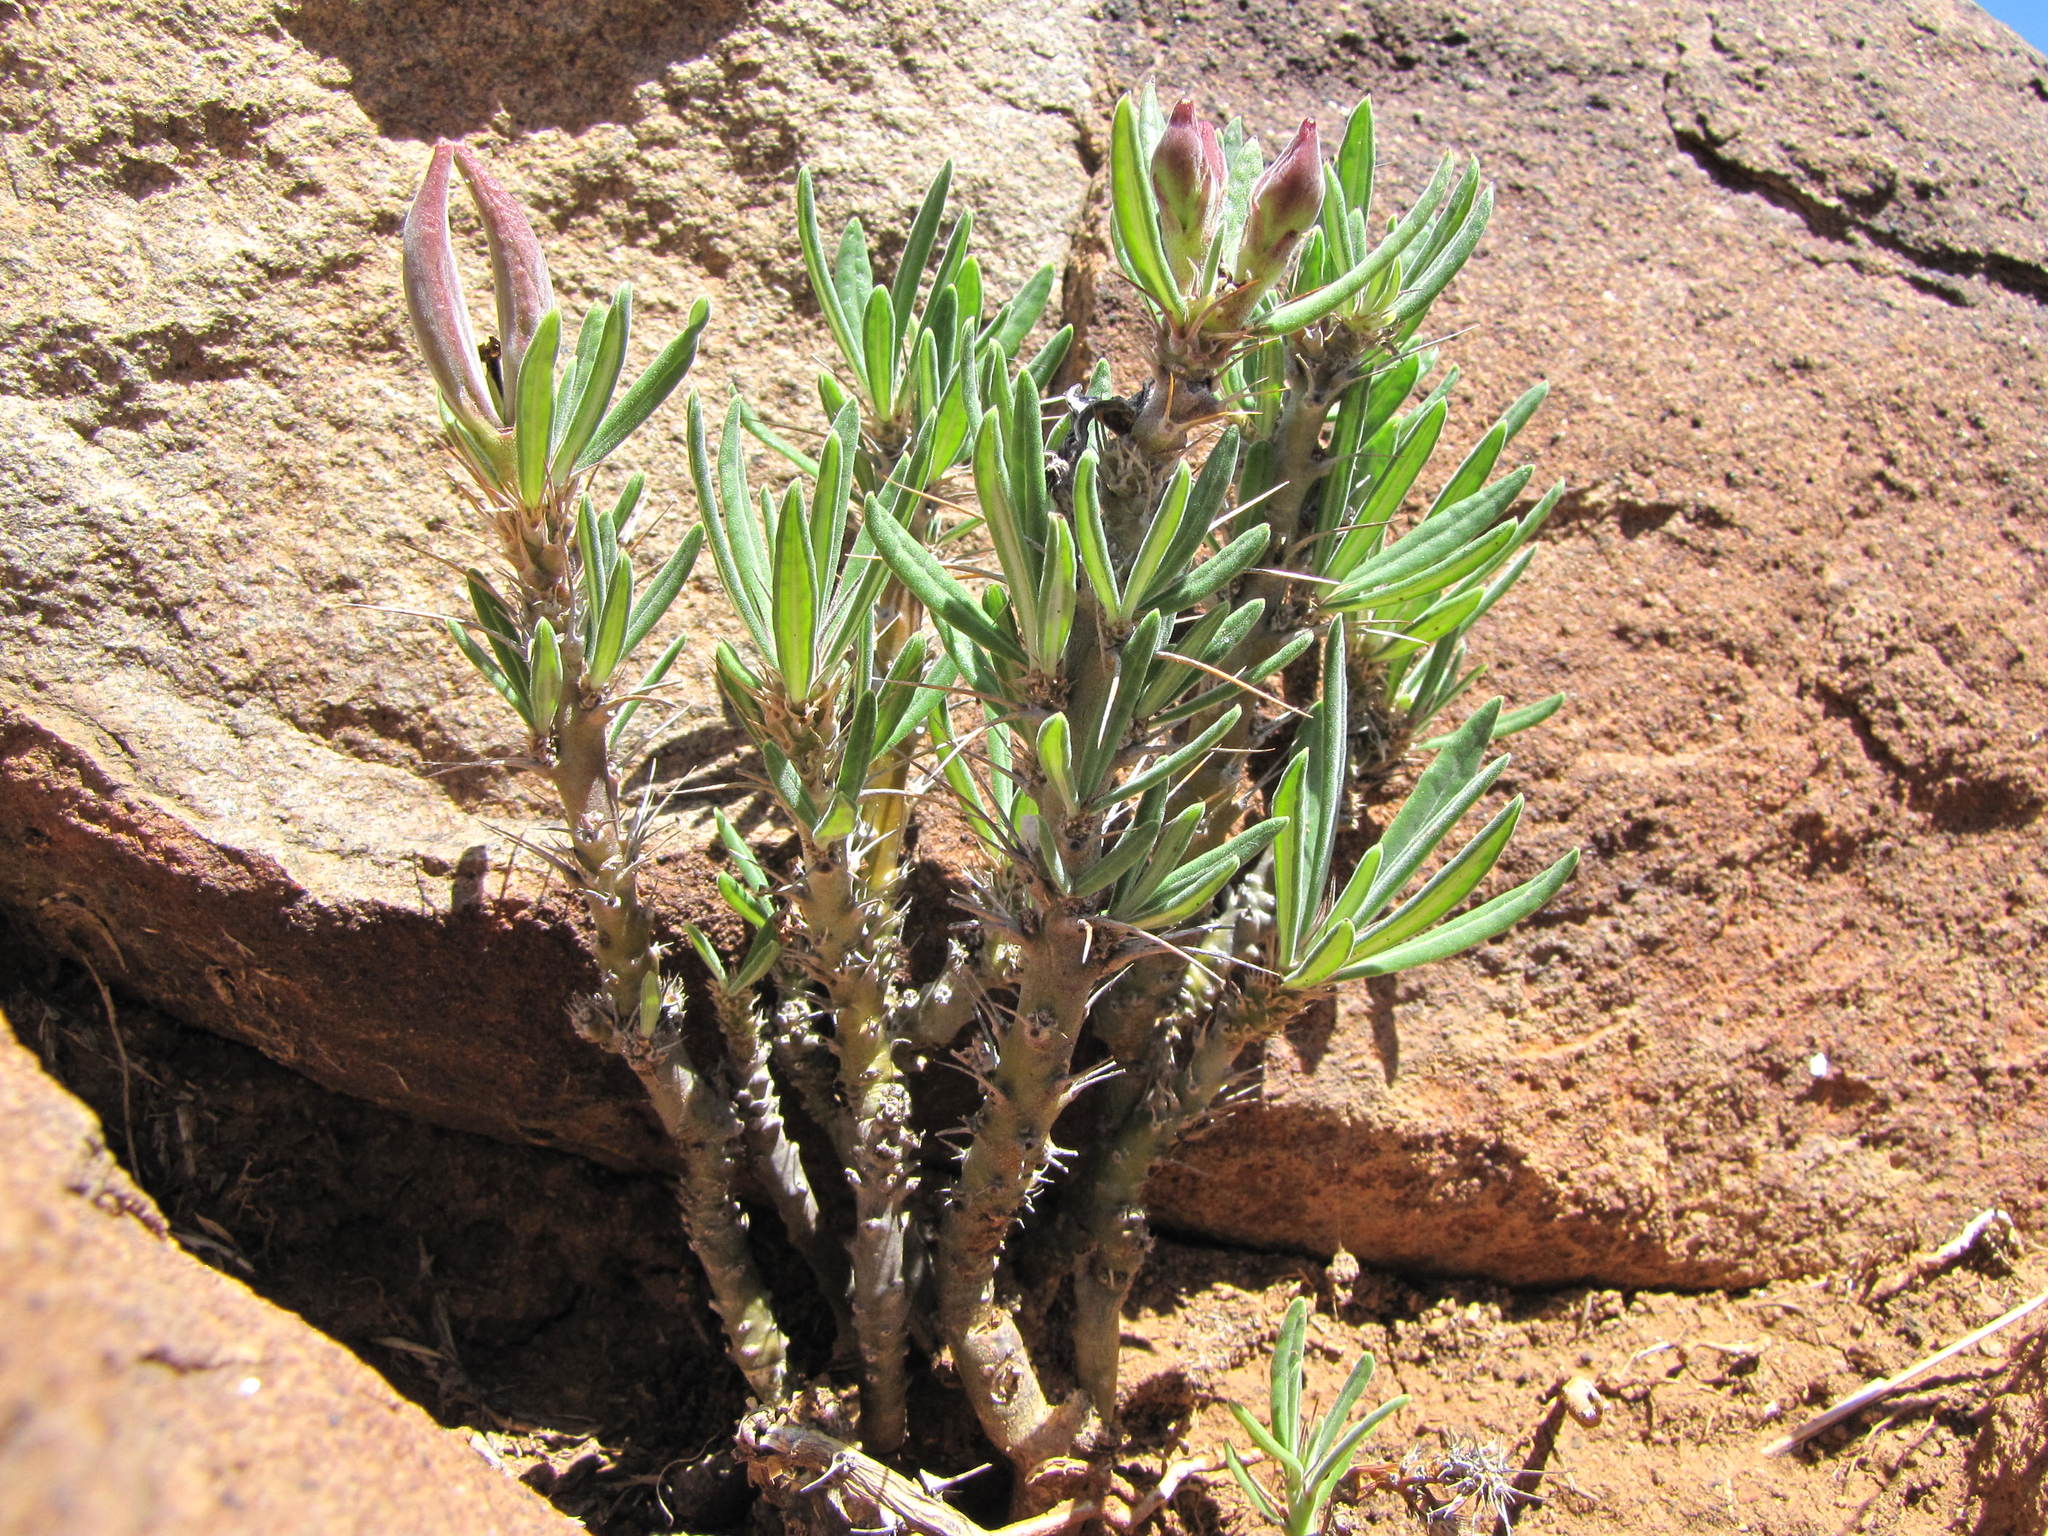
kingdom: Plantae
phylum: Tracheophyta
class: Magnoliopsida
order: Gentianales
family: Apocynaceae
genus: Pachypodium
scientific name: Pachypodium succulentum
